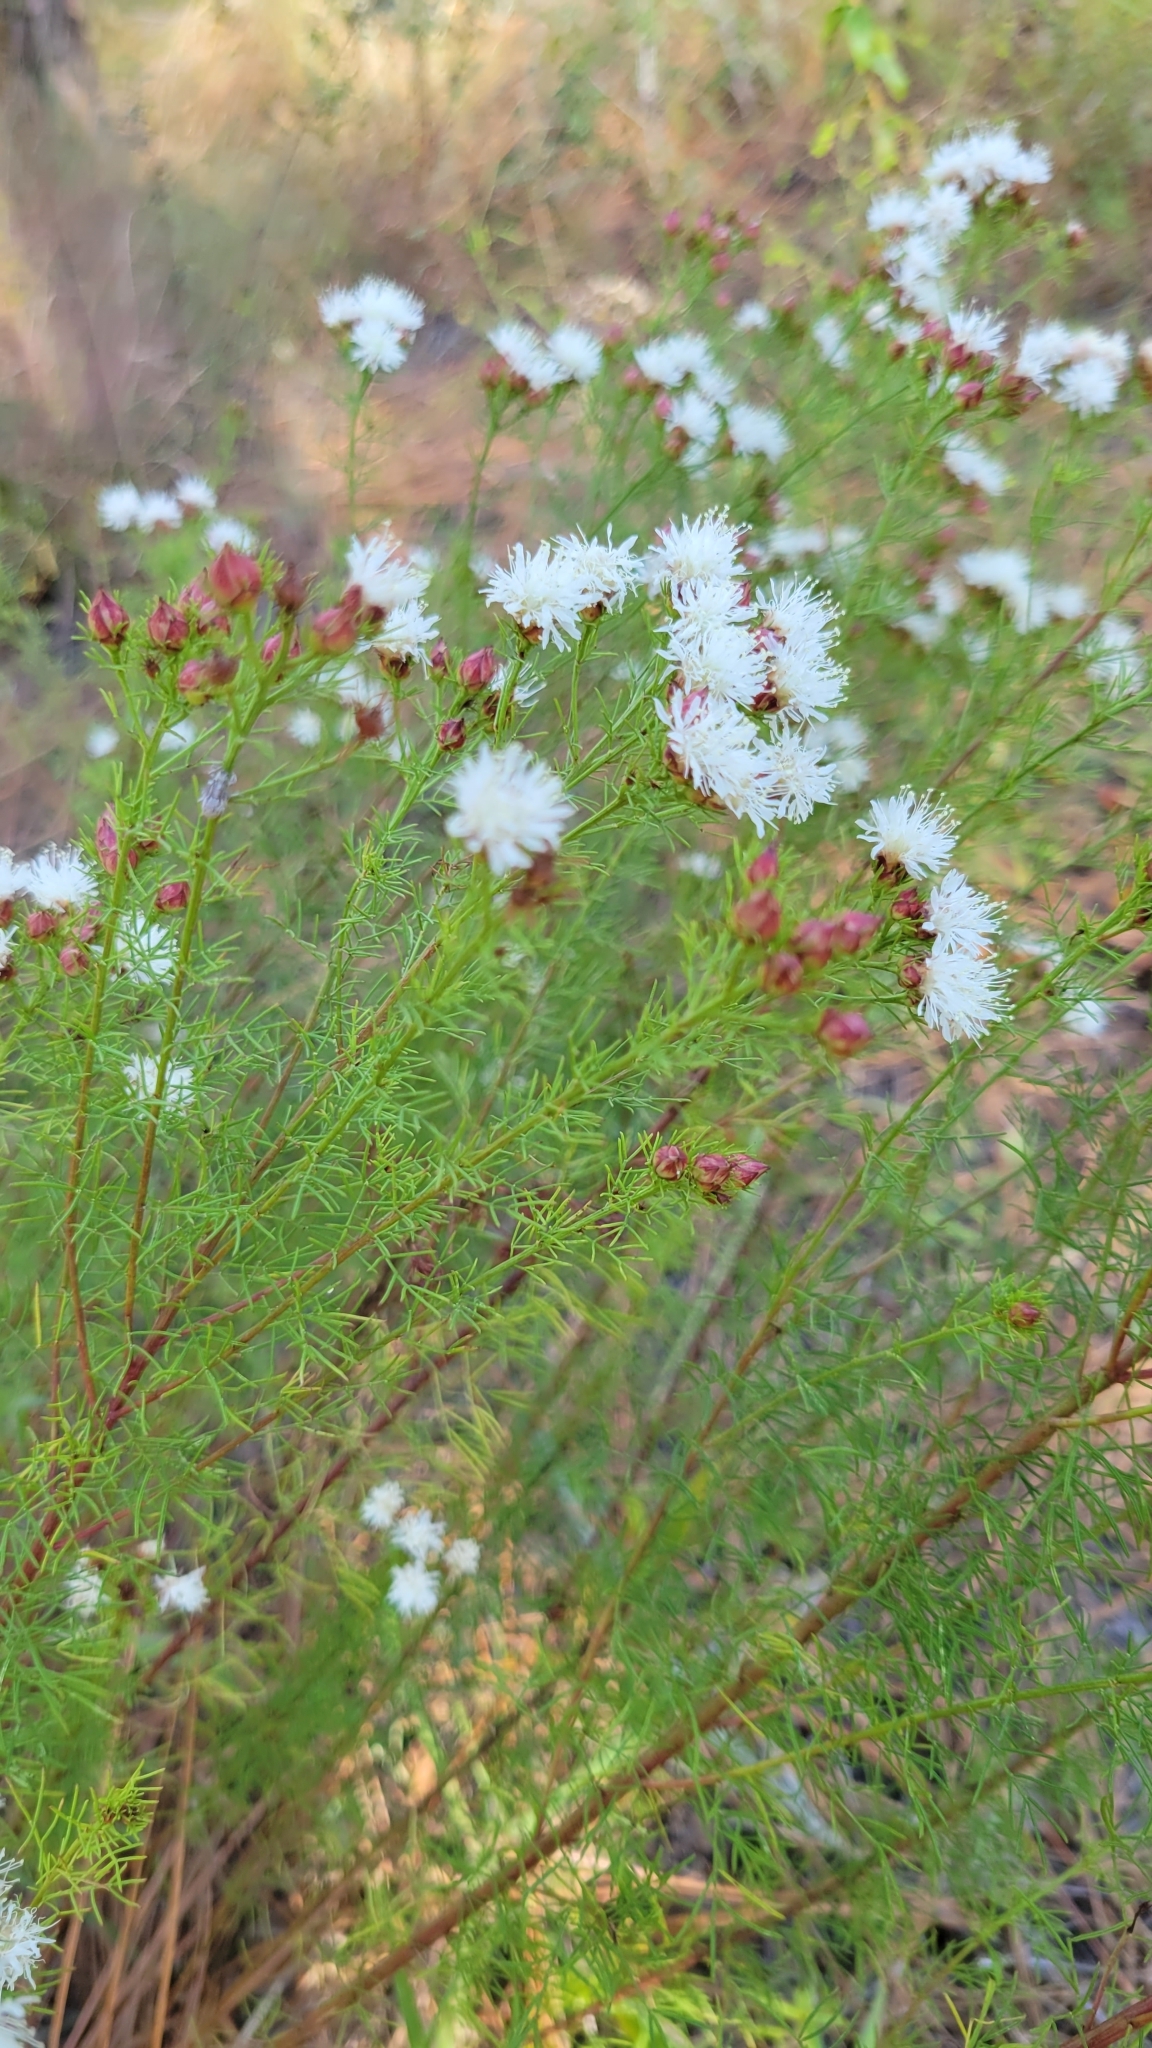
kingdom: Plantae
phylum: Tracheophyta
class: Magnoliopsida
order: Fabales
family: Fabaceae
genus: Dalea
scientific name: Dalea pinnata
